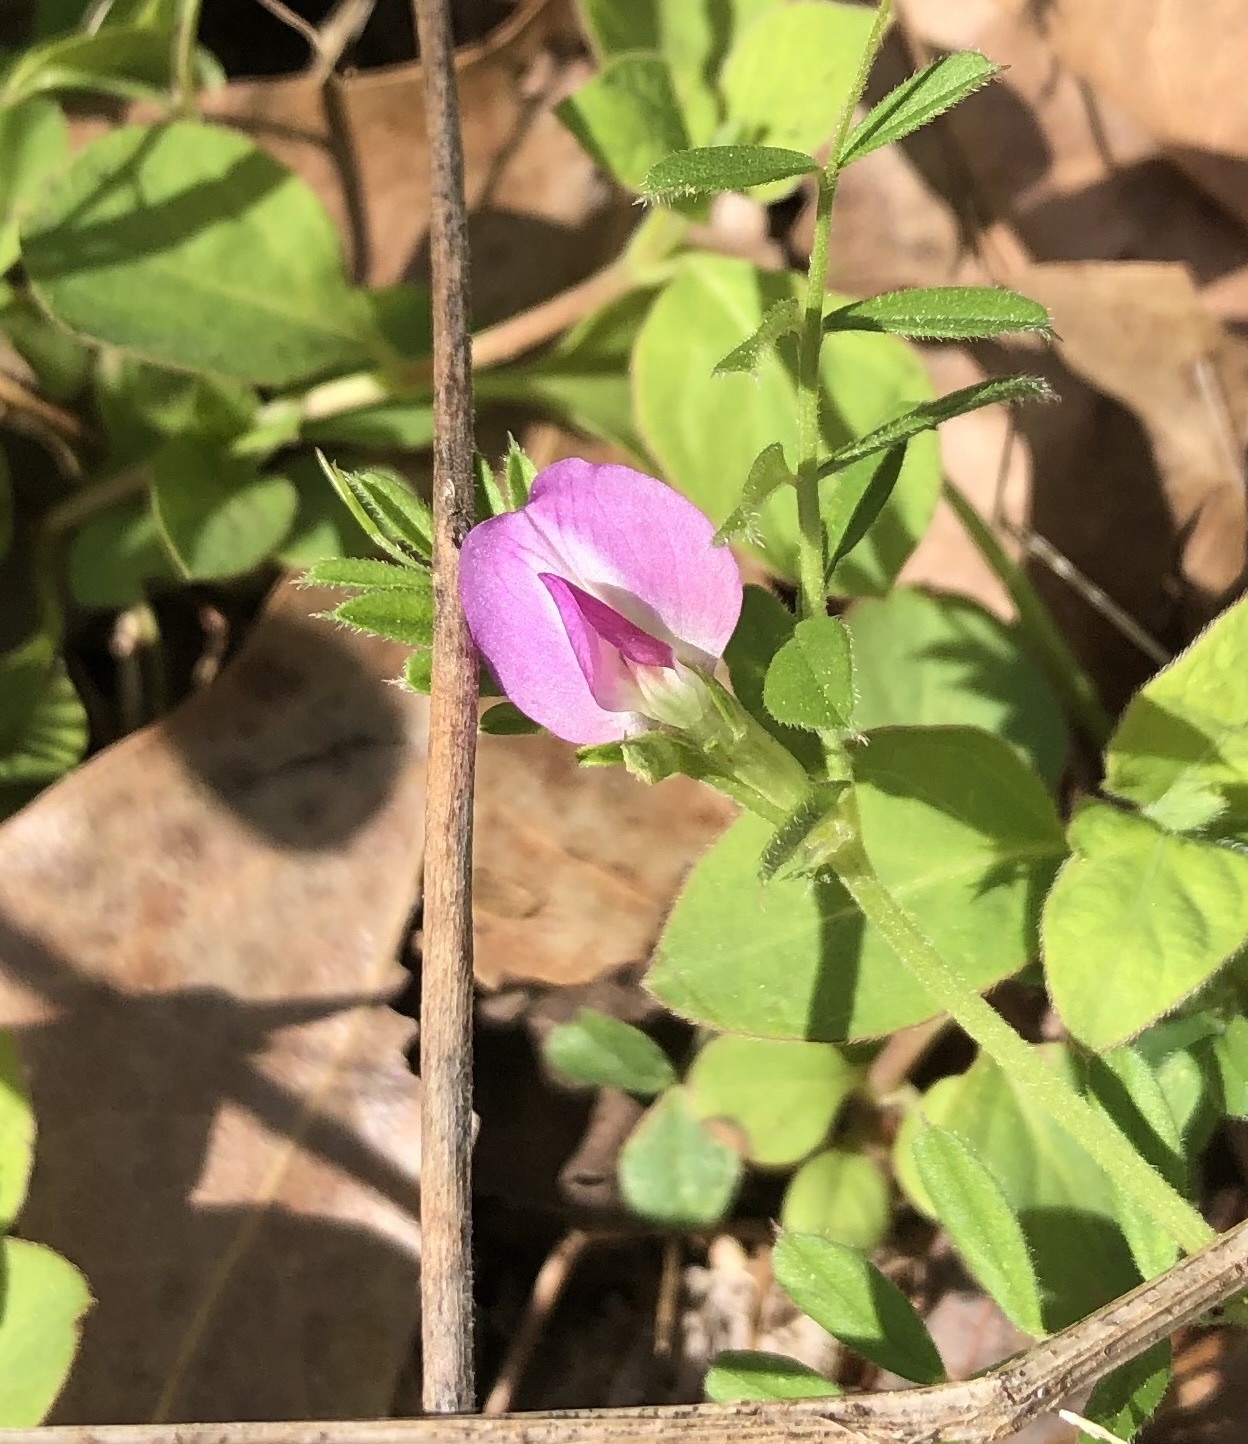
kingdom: Plantae
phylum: Tracheophyta
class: Magnoliopsida
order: Fabales
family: Fabaceae
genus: Vicia
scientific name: Vicia sativa
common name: Garden vetch
